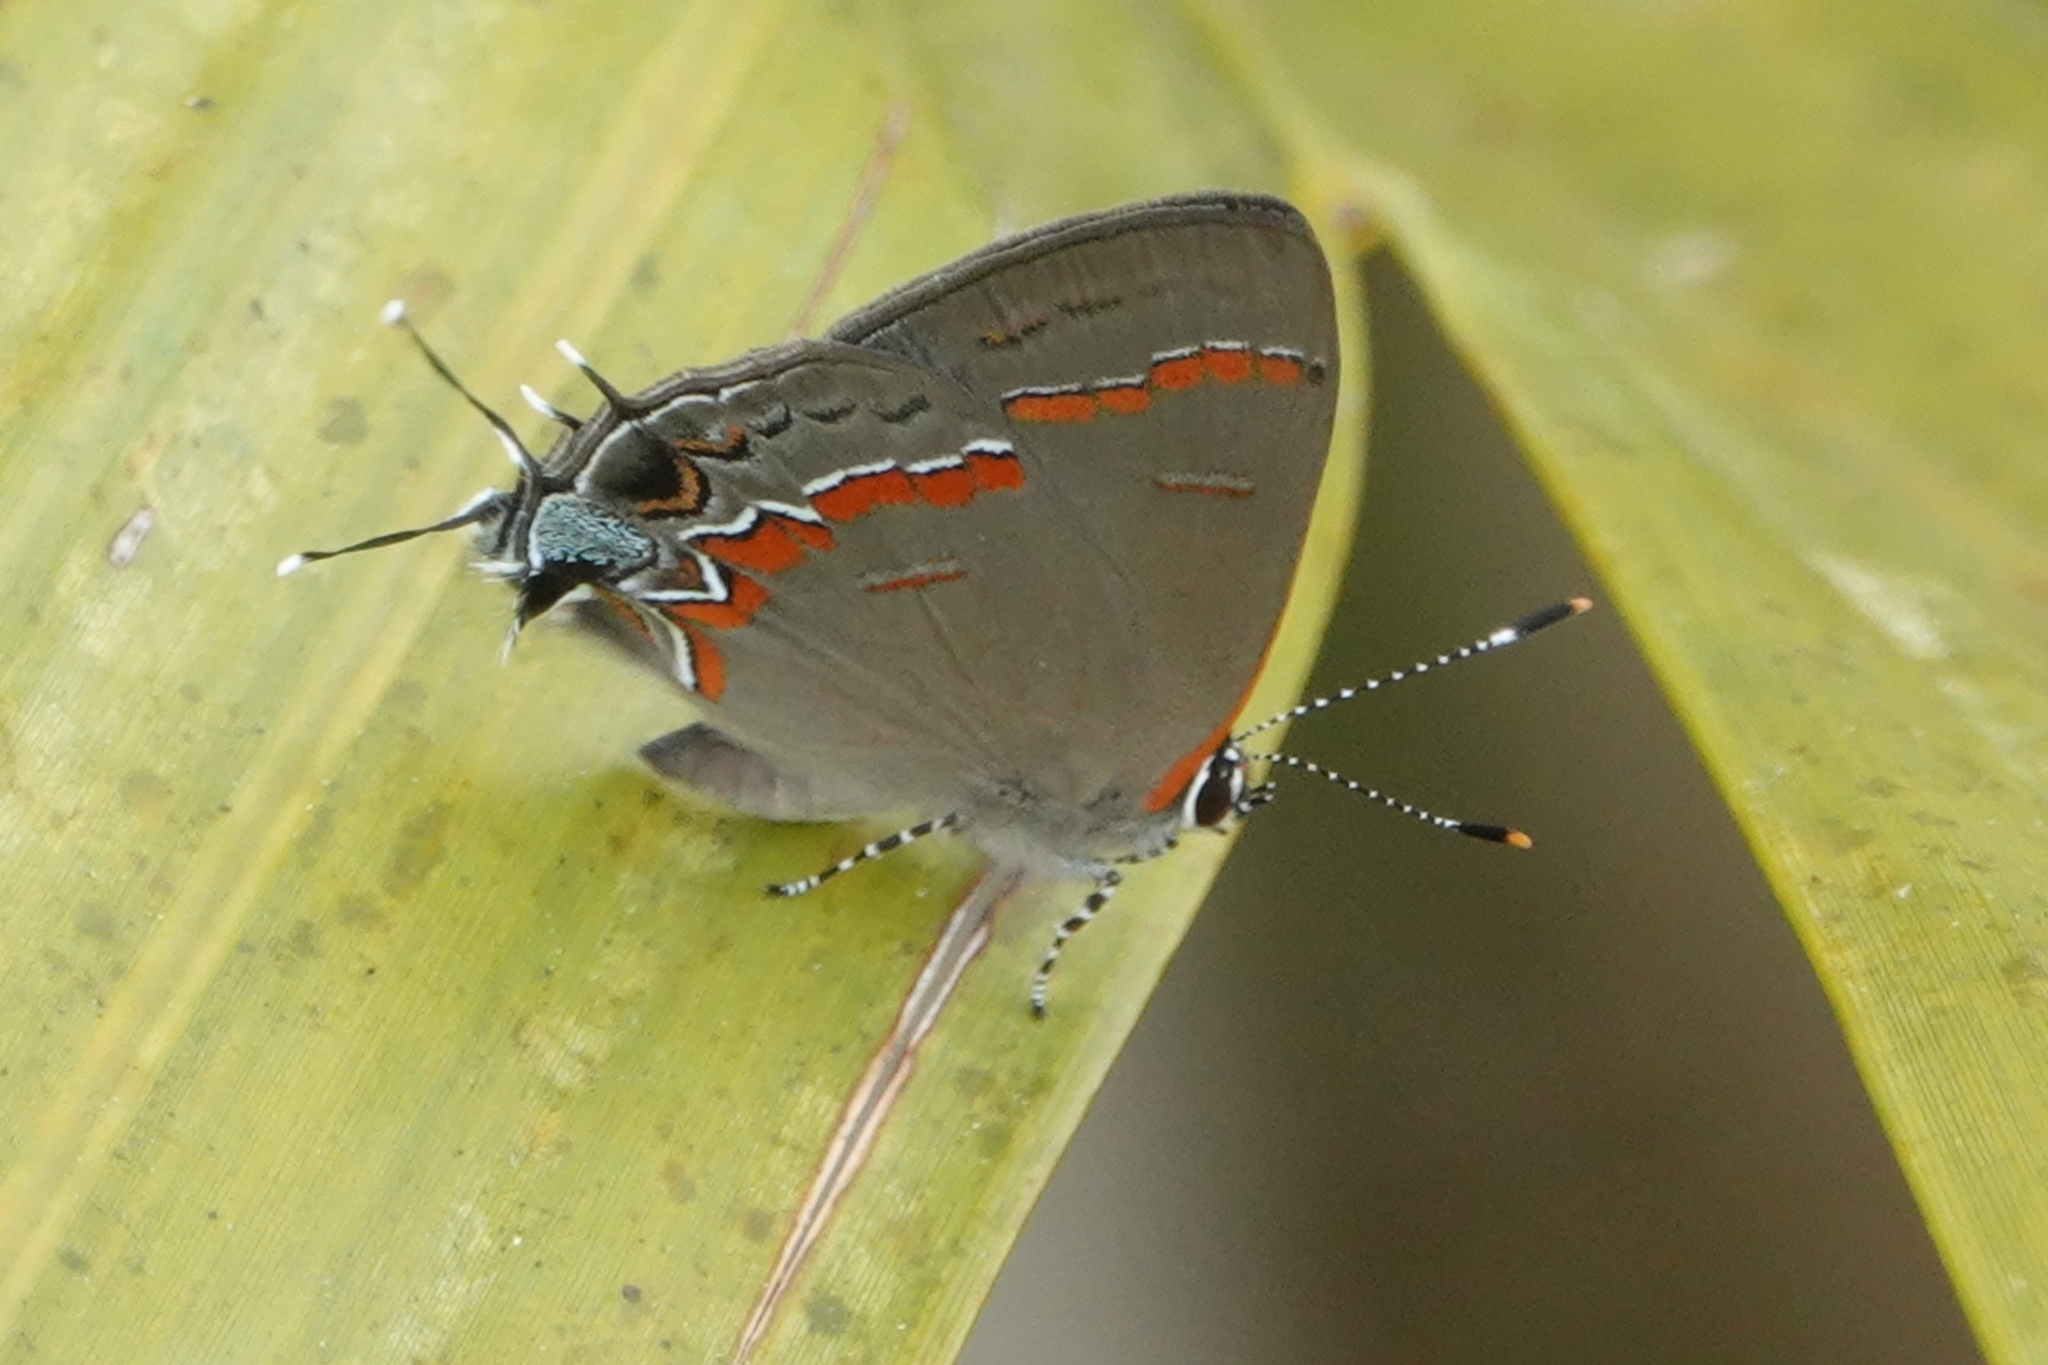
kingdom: Animalia
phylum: Arthropoda
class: Insecta
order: Lepidoptera
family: Lycaenidae
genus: Calycopis
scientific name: Calycopis cecrops
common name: Red-banded hairstreak
